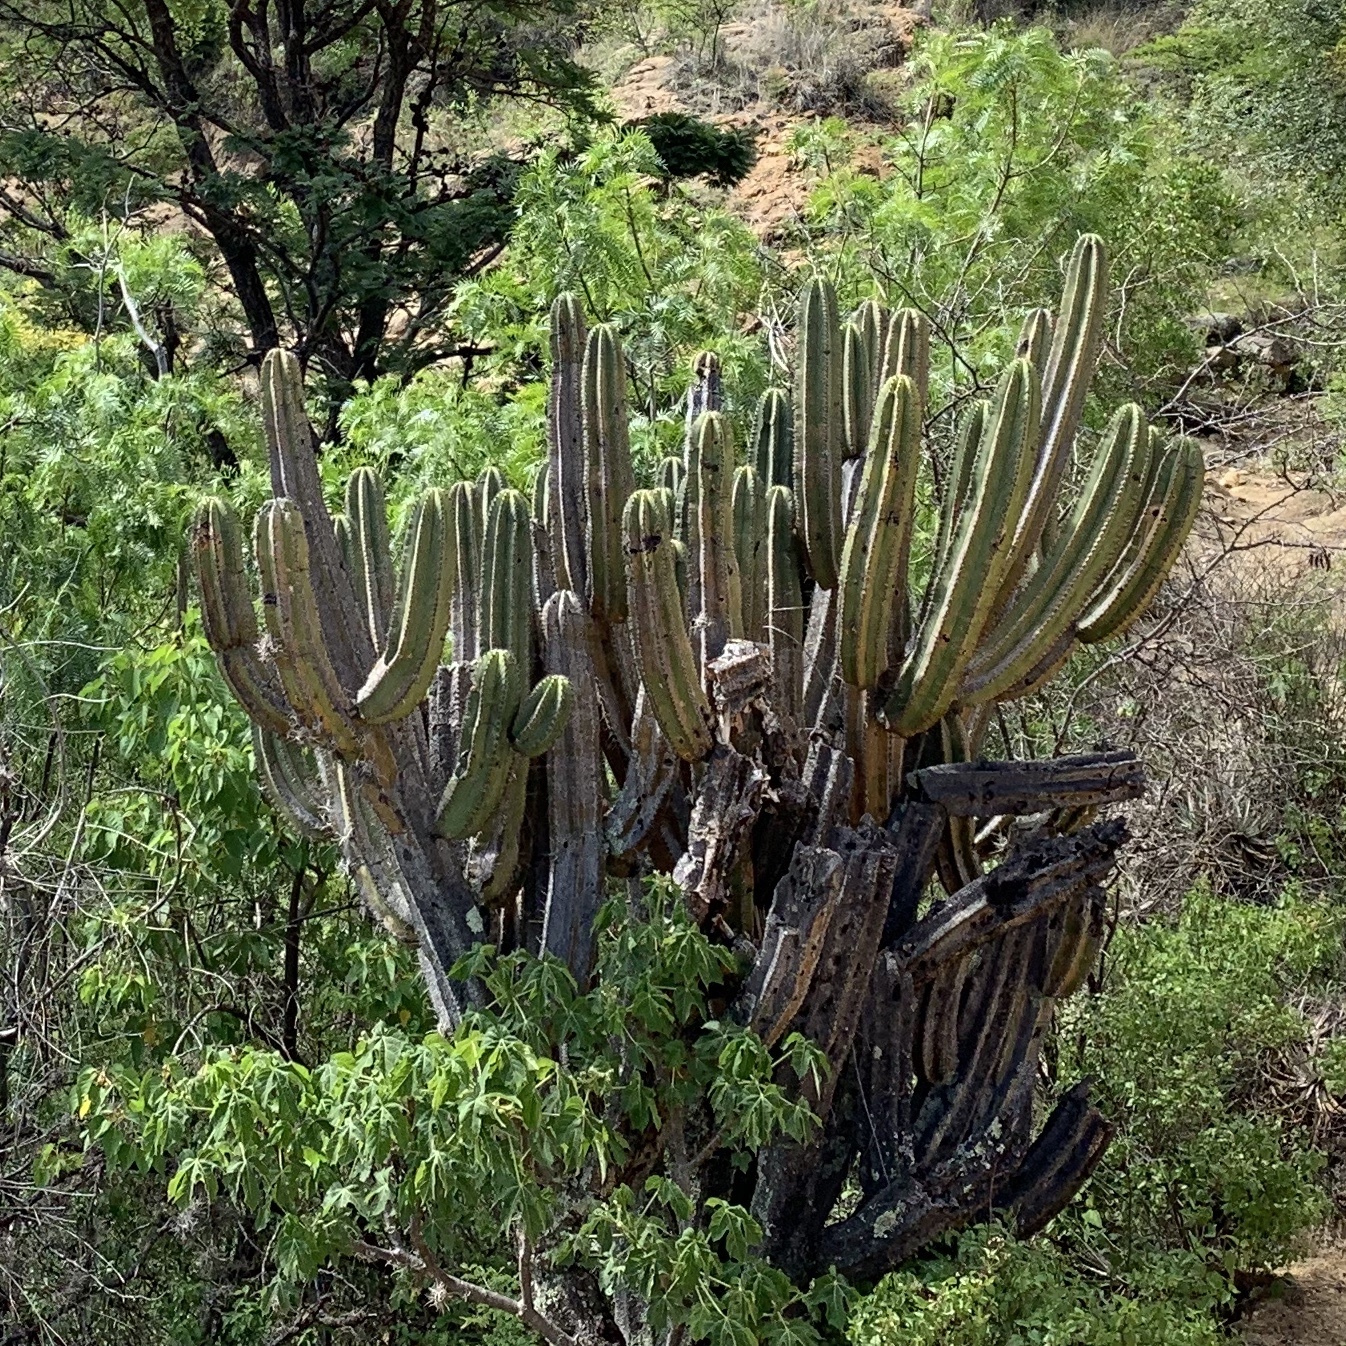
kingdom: Plantae
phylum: Tracheophyta
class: Magnoliopsida
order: Caryophyllales
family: Cactaceae
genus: Myrtillocactus
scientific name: Myrtillocactus schenckii
